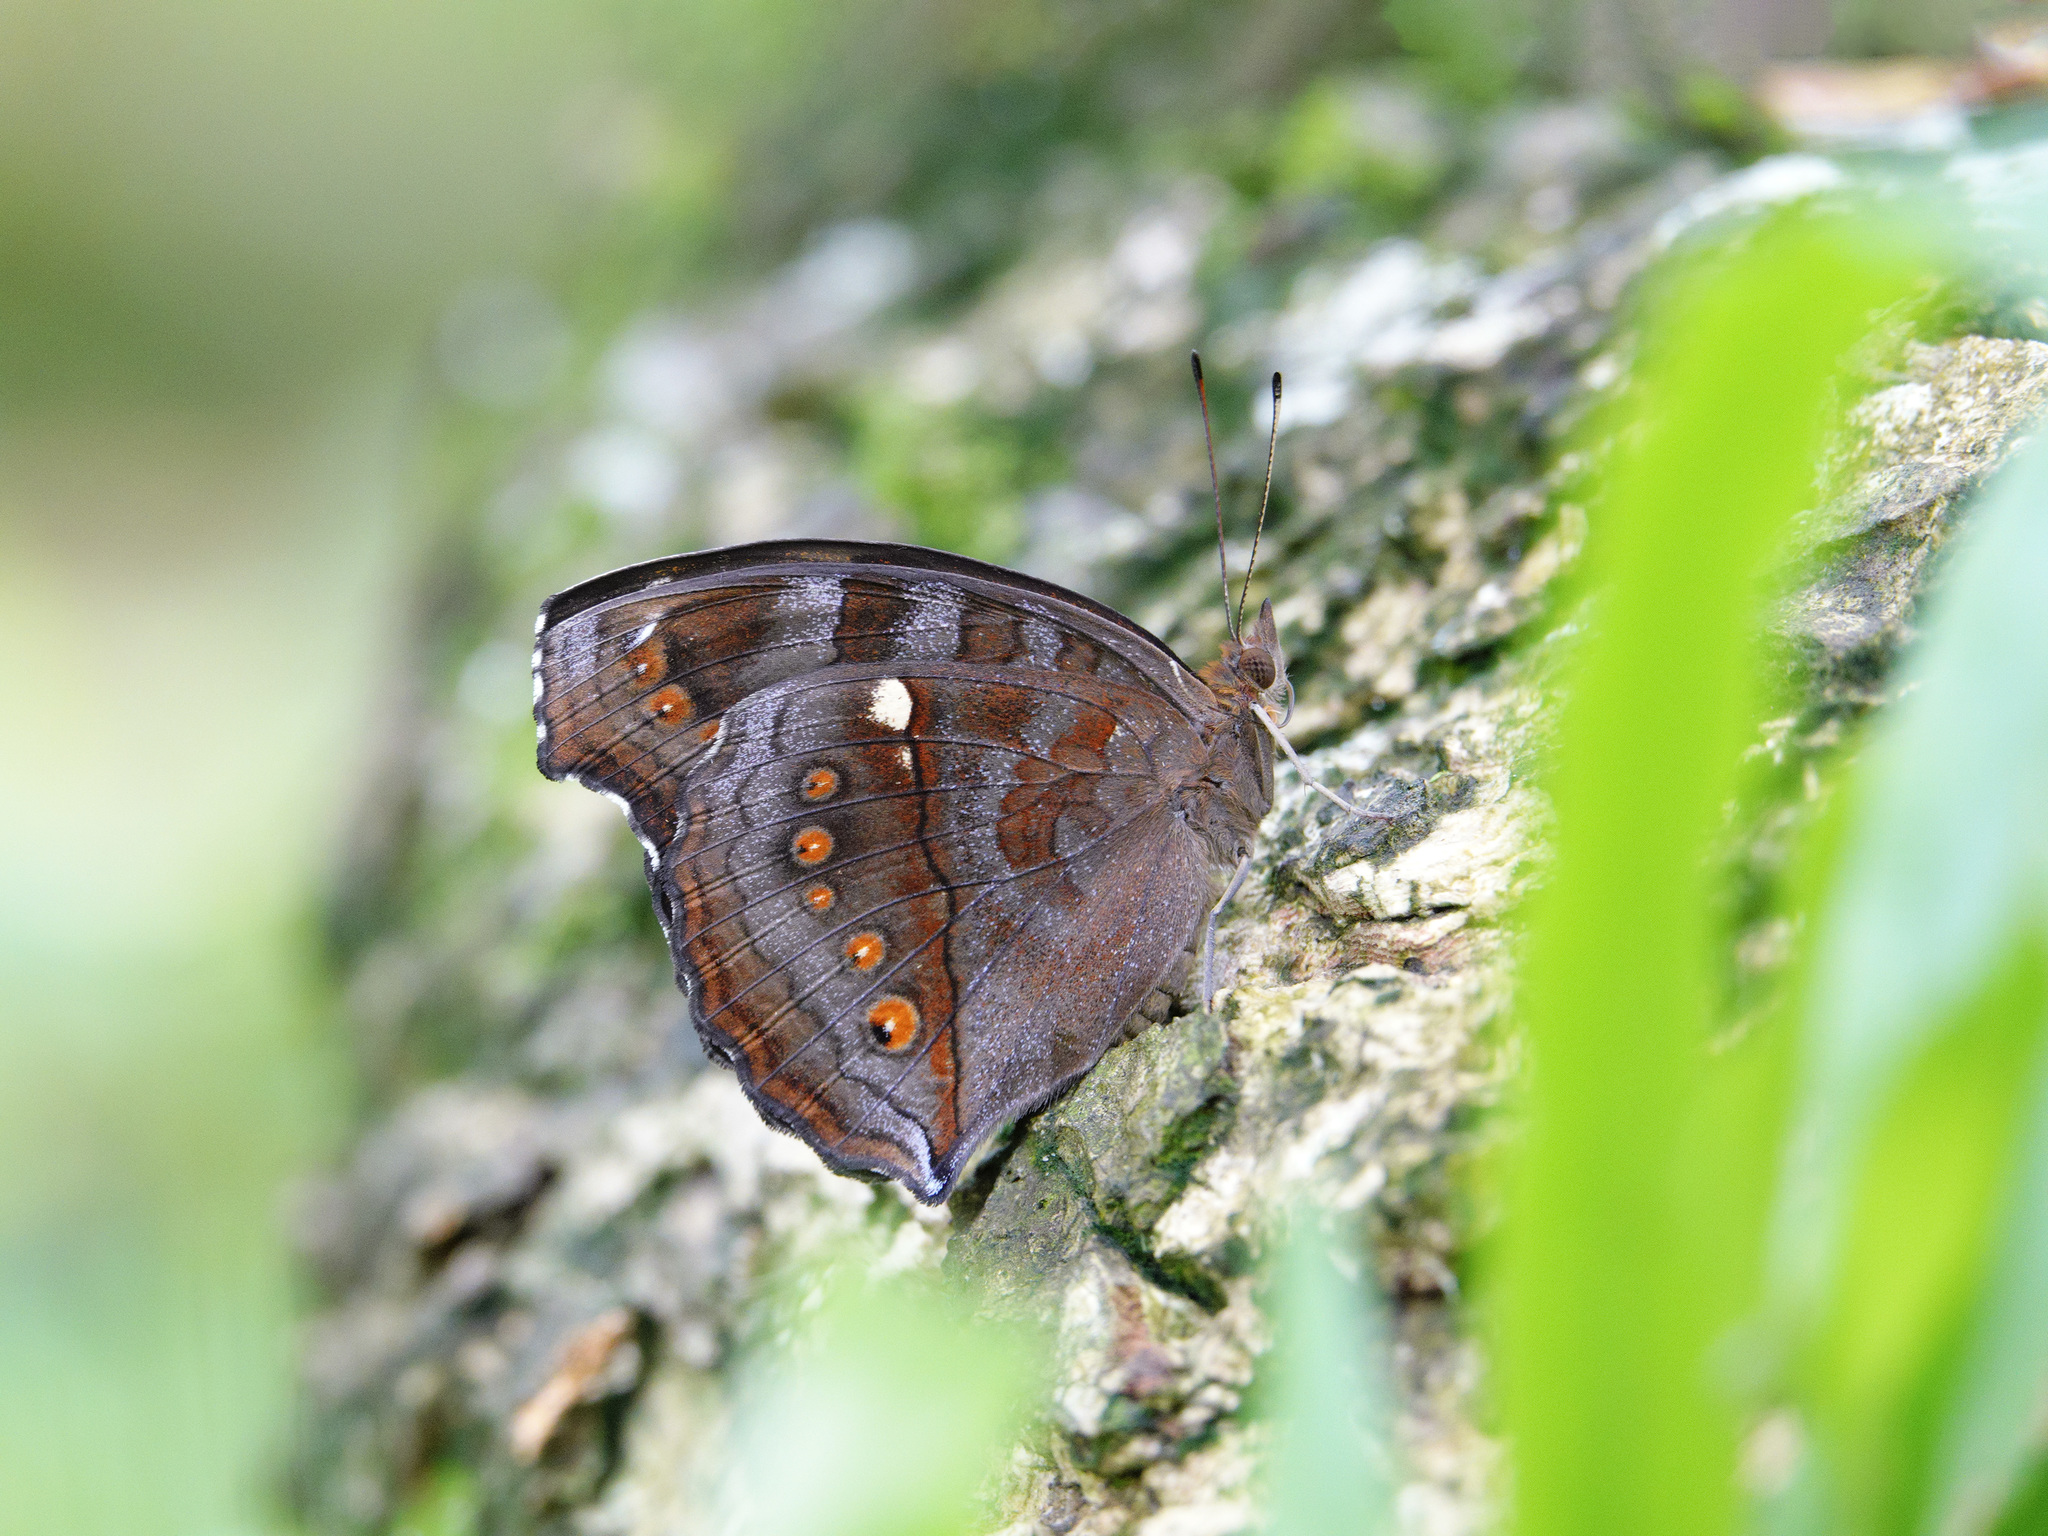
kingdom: Animalia
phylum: Arthropoda
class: Insecta
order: Lepidoptera
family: Nymphalidae
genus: Junonia
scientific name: Junonia hedonia
